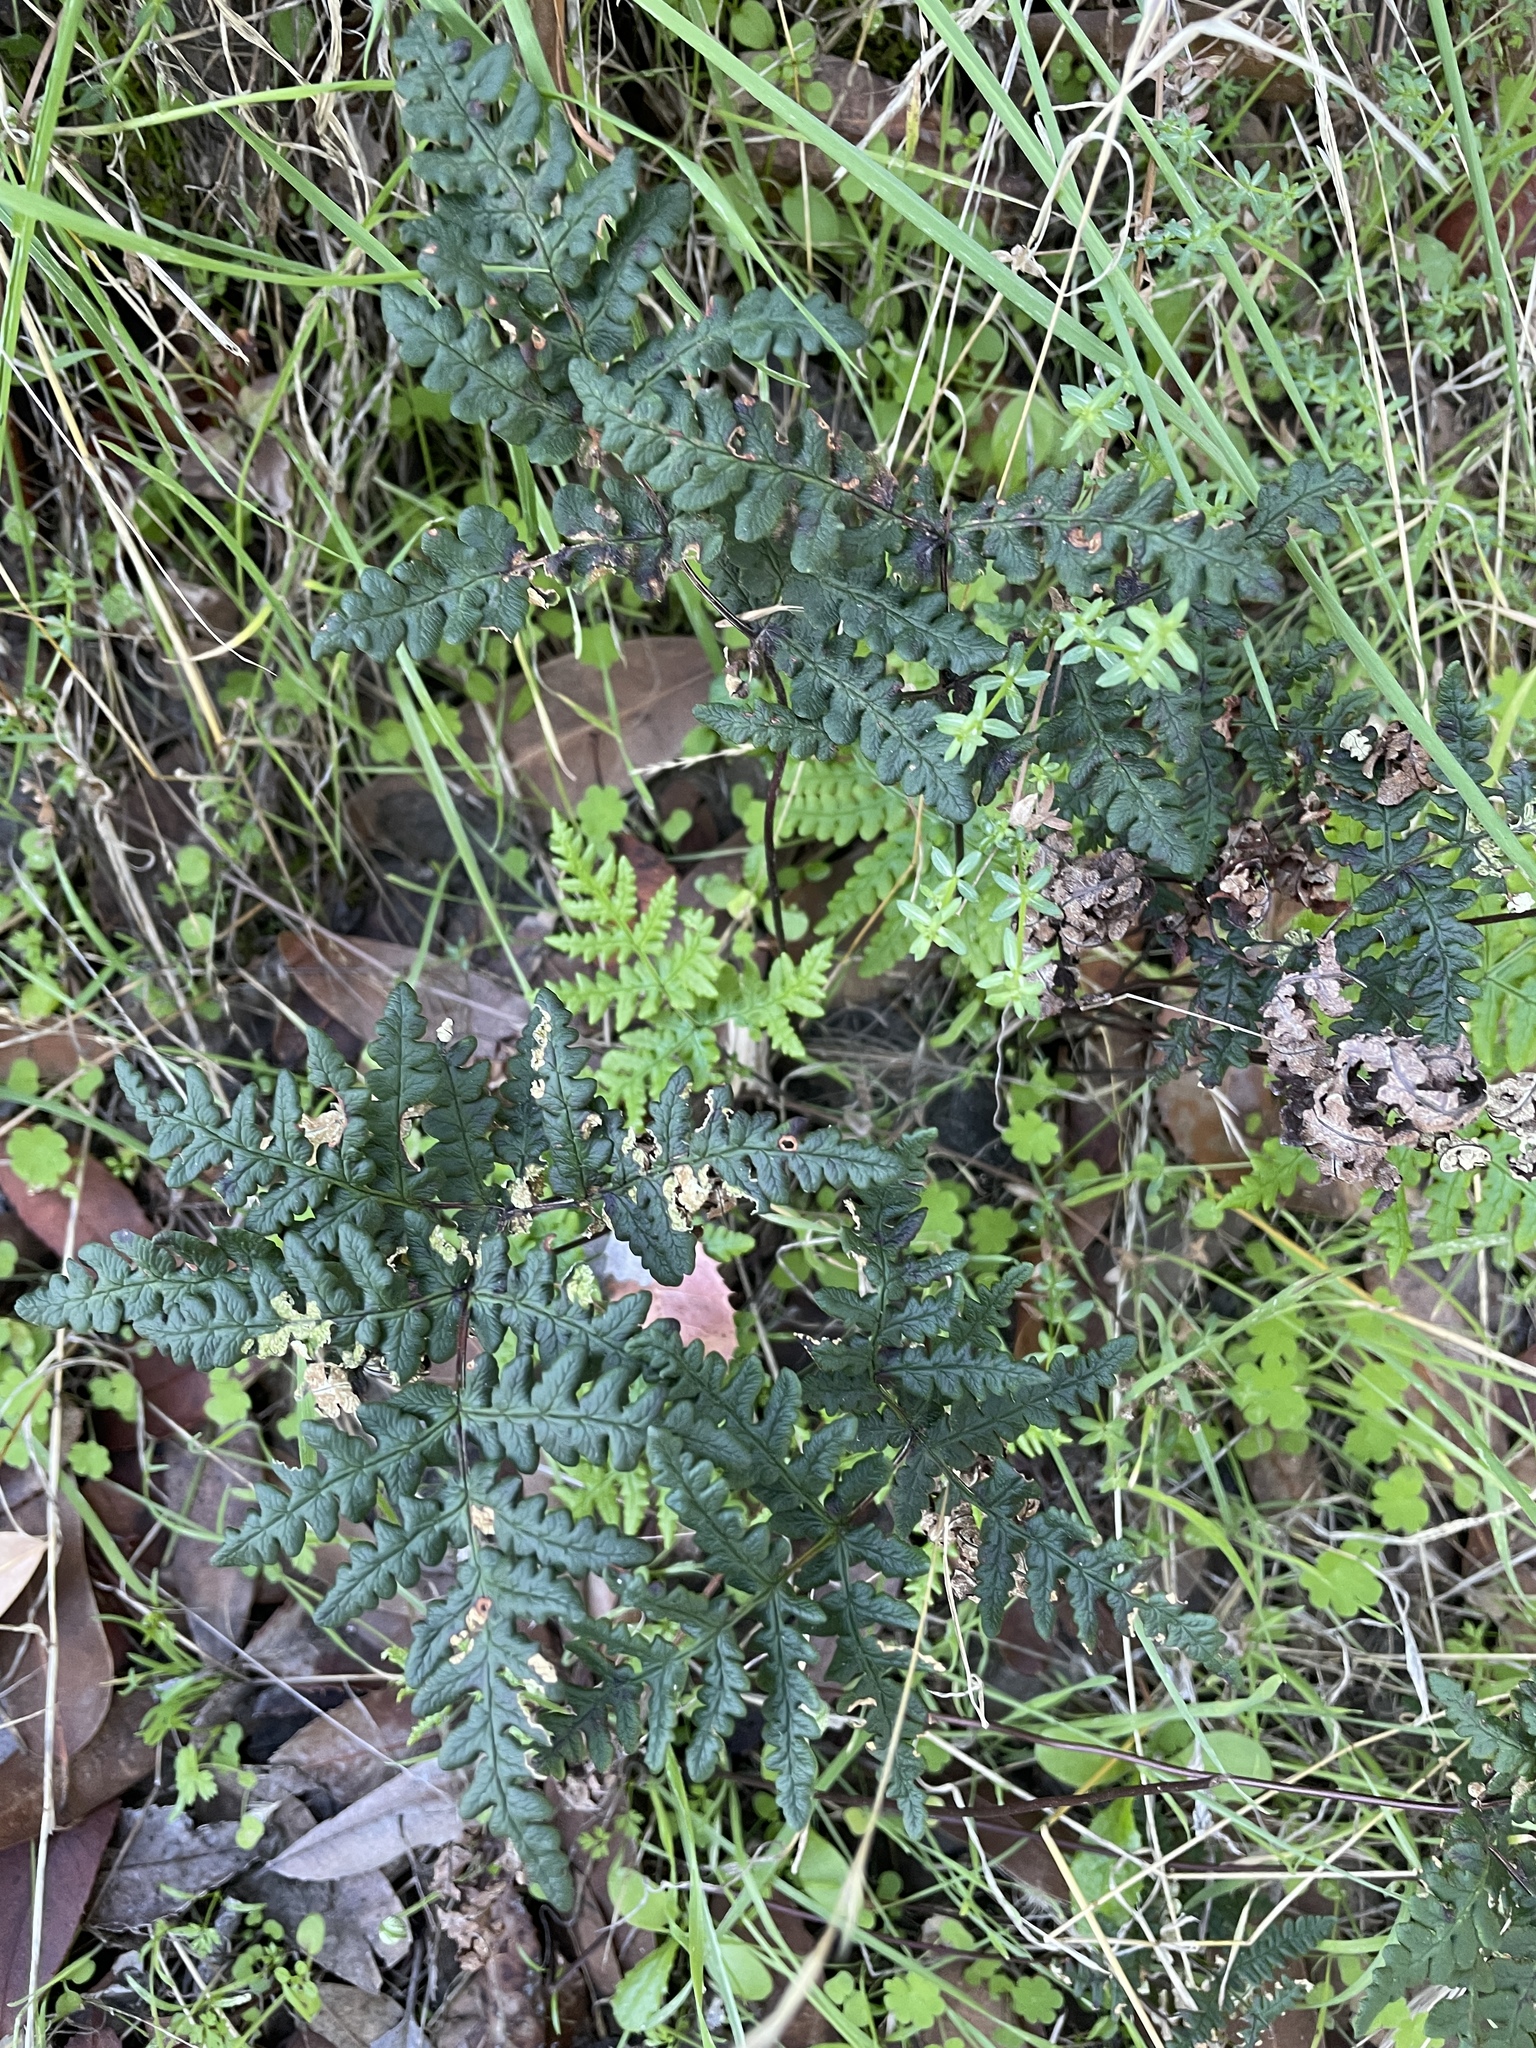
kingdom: Plantae
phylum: Tracheophyta
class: Polypodiopsida
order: Polypodiales
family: Pteridaceae
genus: Pentagramma
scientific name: Pentagramma triangularis
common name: Gold fern
